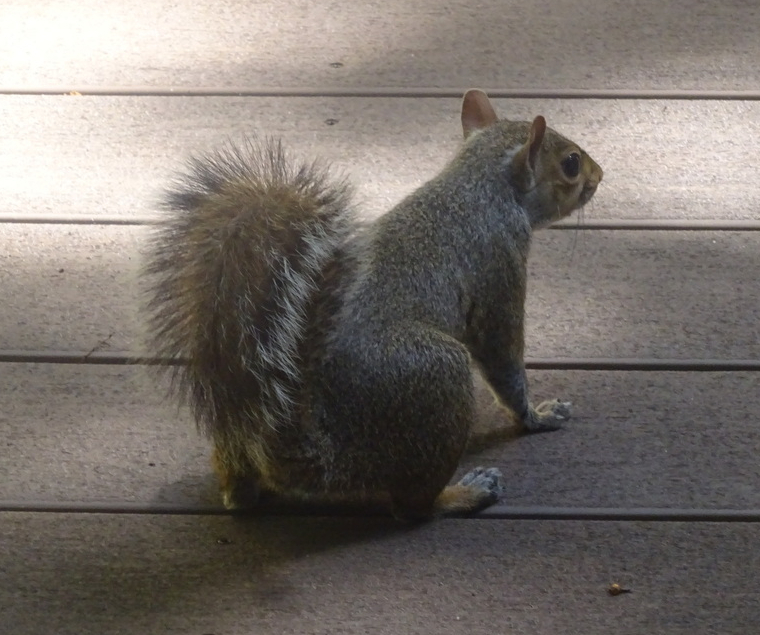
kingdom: Animalia
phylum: Chordata
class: Mammalia
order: Rodentia
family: Sciuridae
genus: Sciurus
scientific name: Sciurus carolinensis
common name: Eastern gray squirrel
